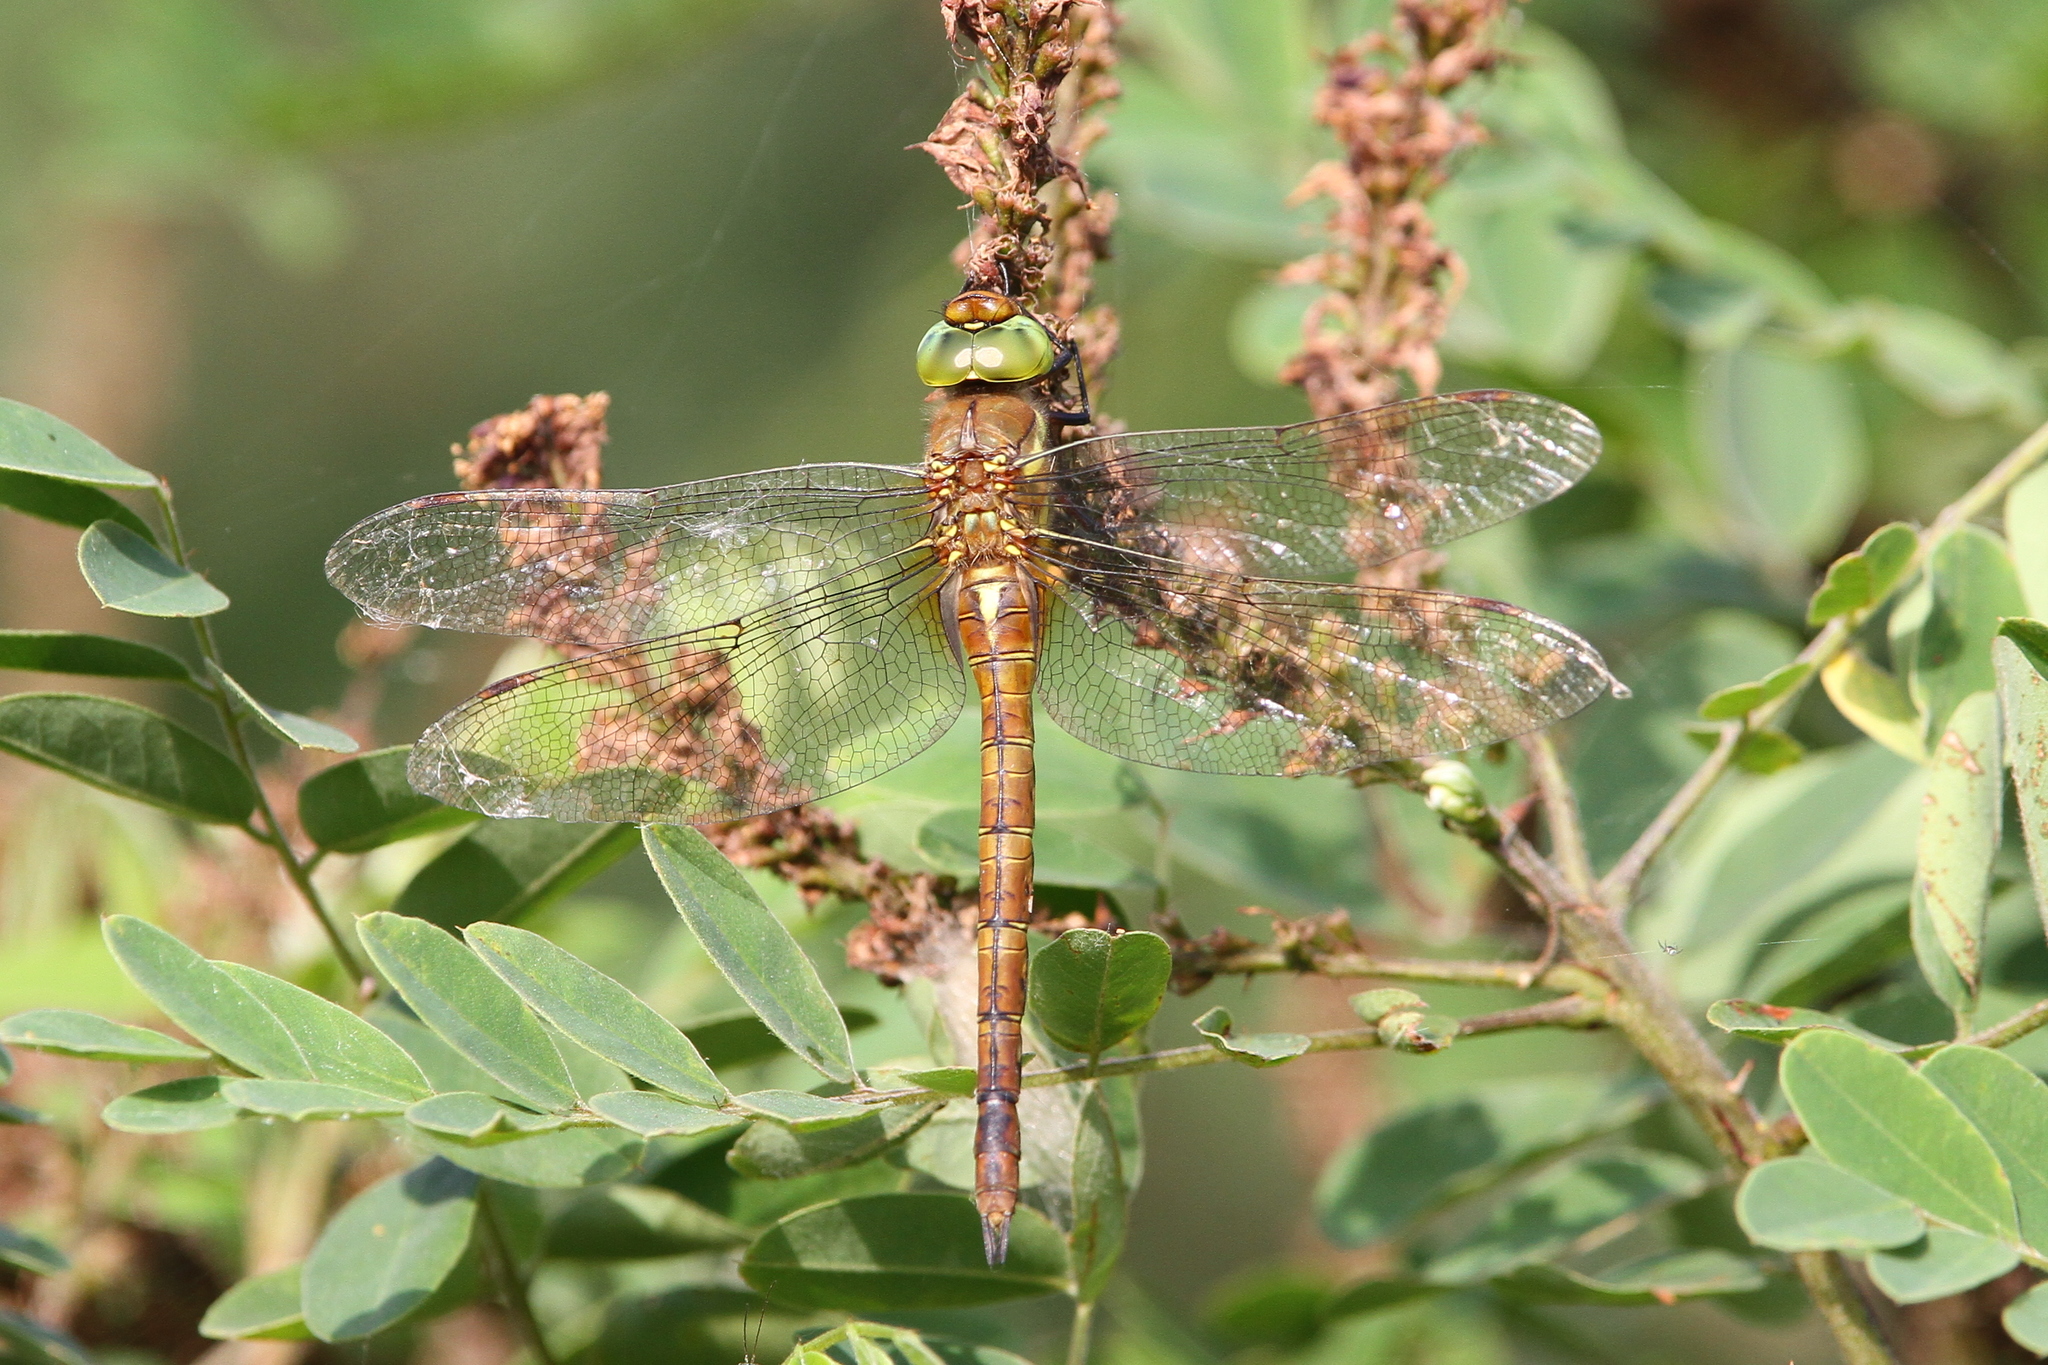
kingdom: Animalia
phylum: Arthropoda
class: Insecta
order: Odonata
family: Aeshnidae
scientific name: Aeshnidae
